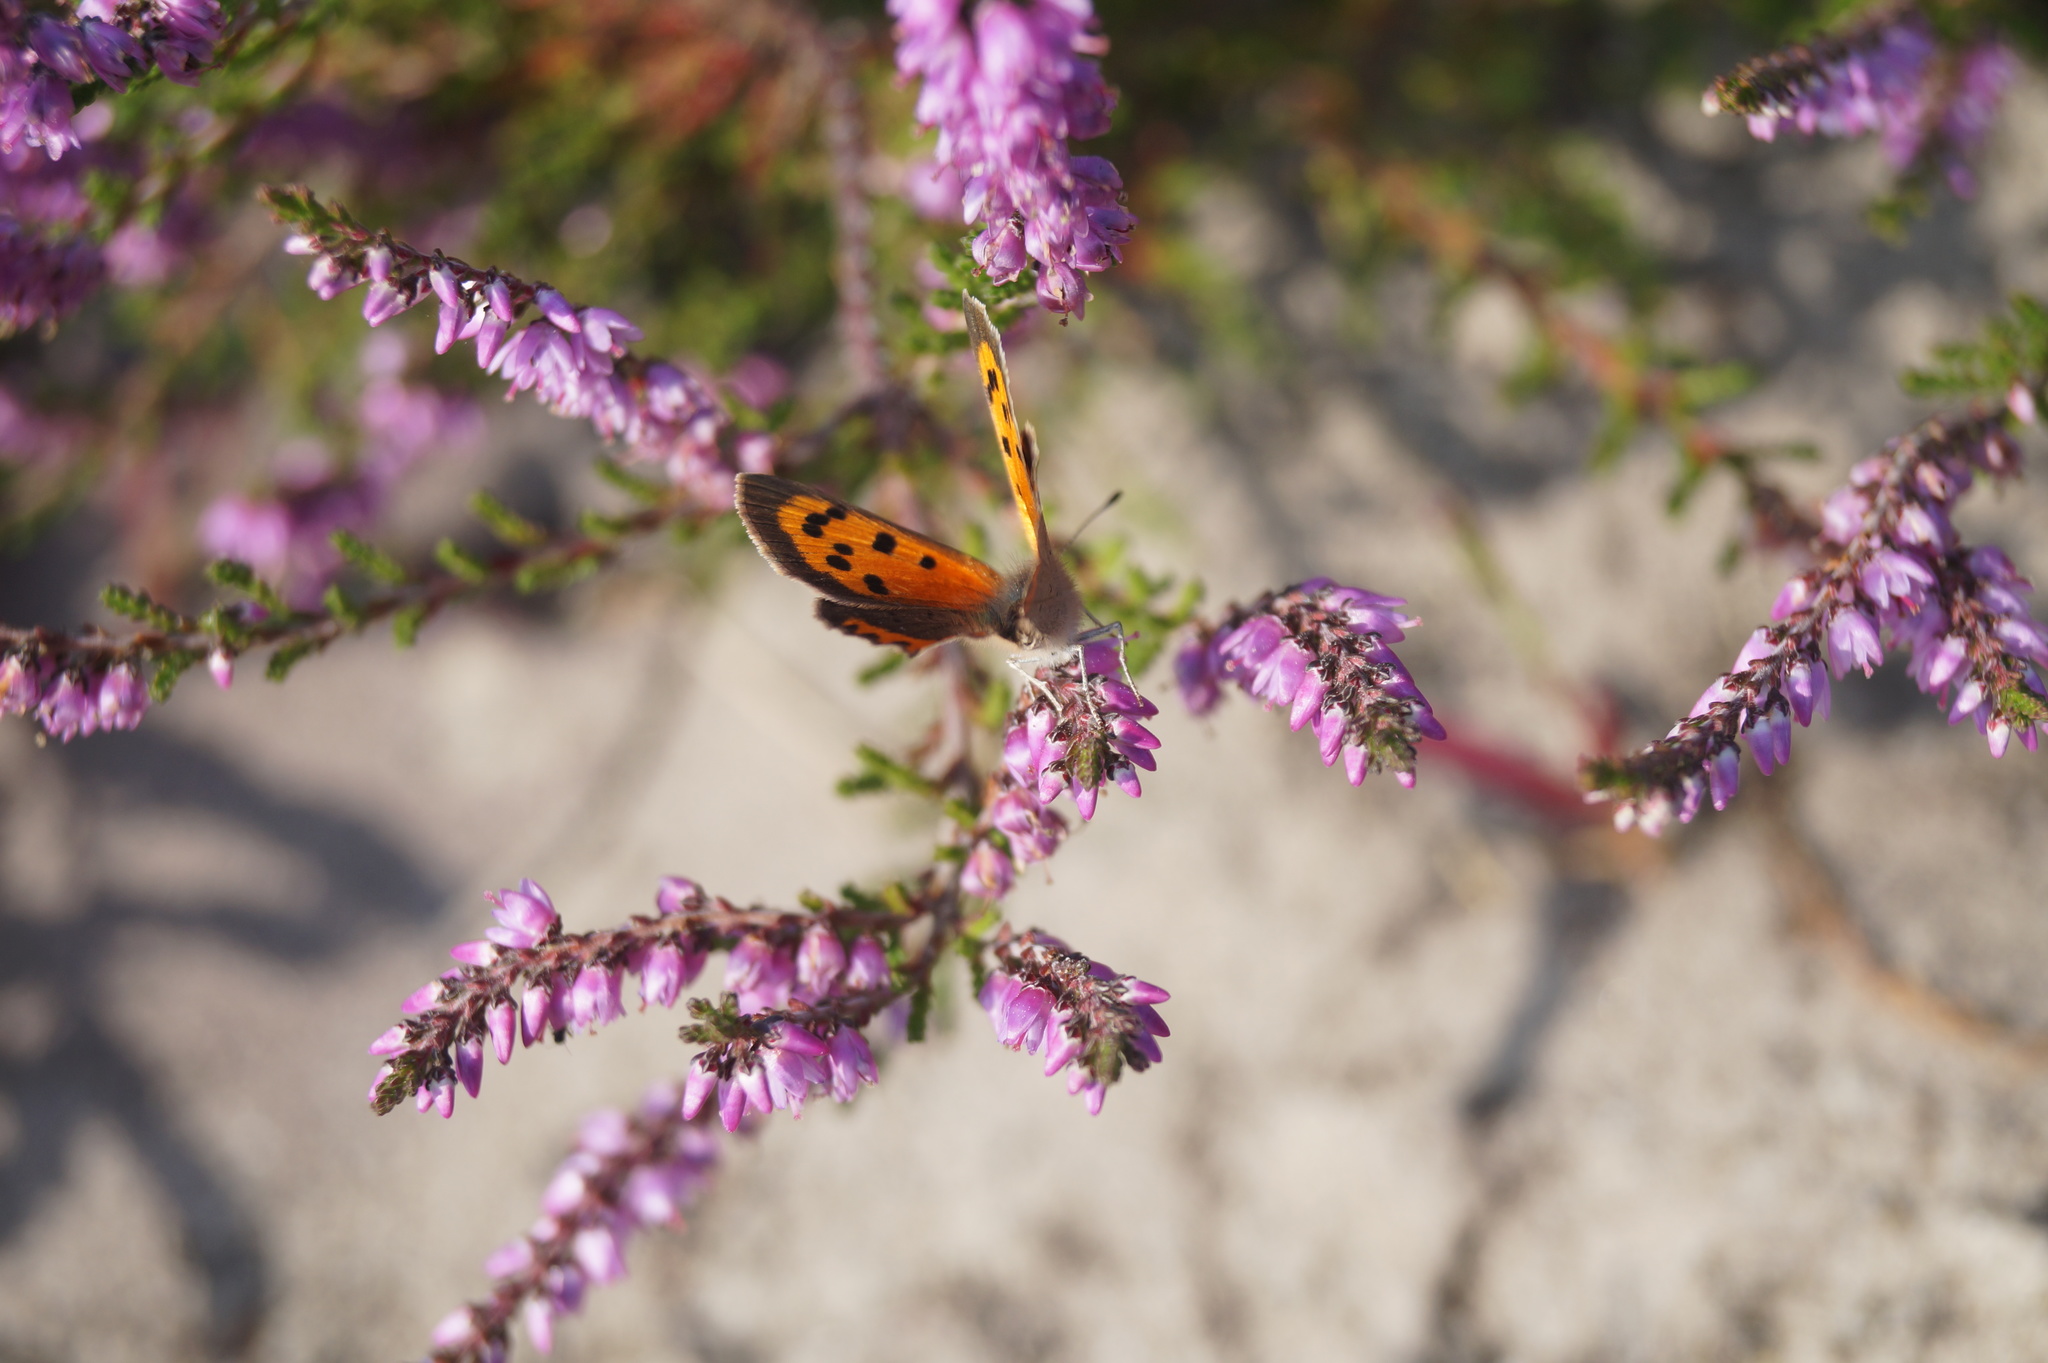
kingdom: Animalia
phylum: Arthropoda
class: Insecta
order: Lepidoptera
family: Lycaenidae
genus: Lycaena
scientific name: Lycaena phlaeas
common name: Small copper
